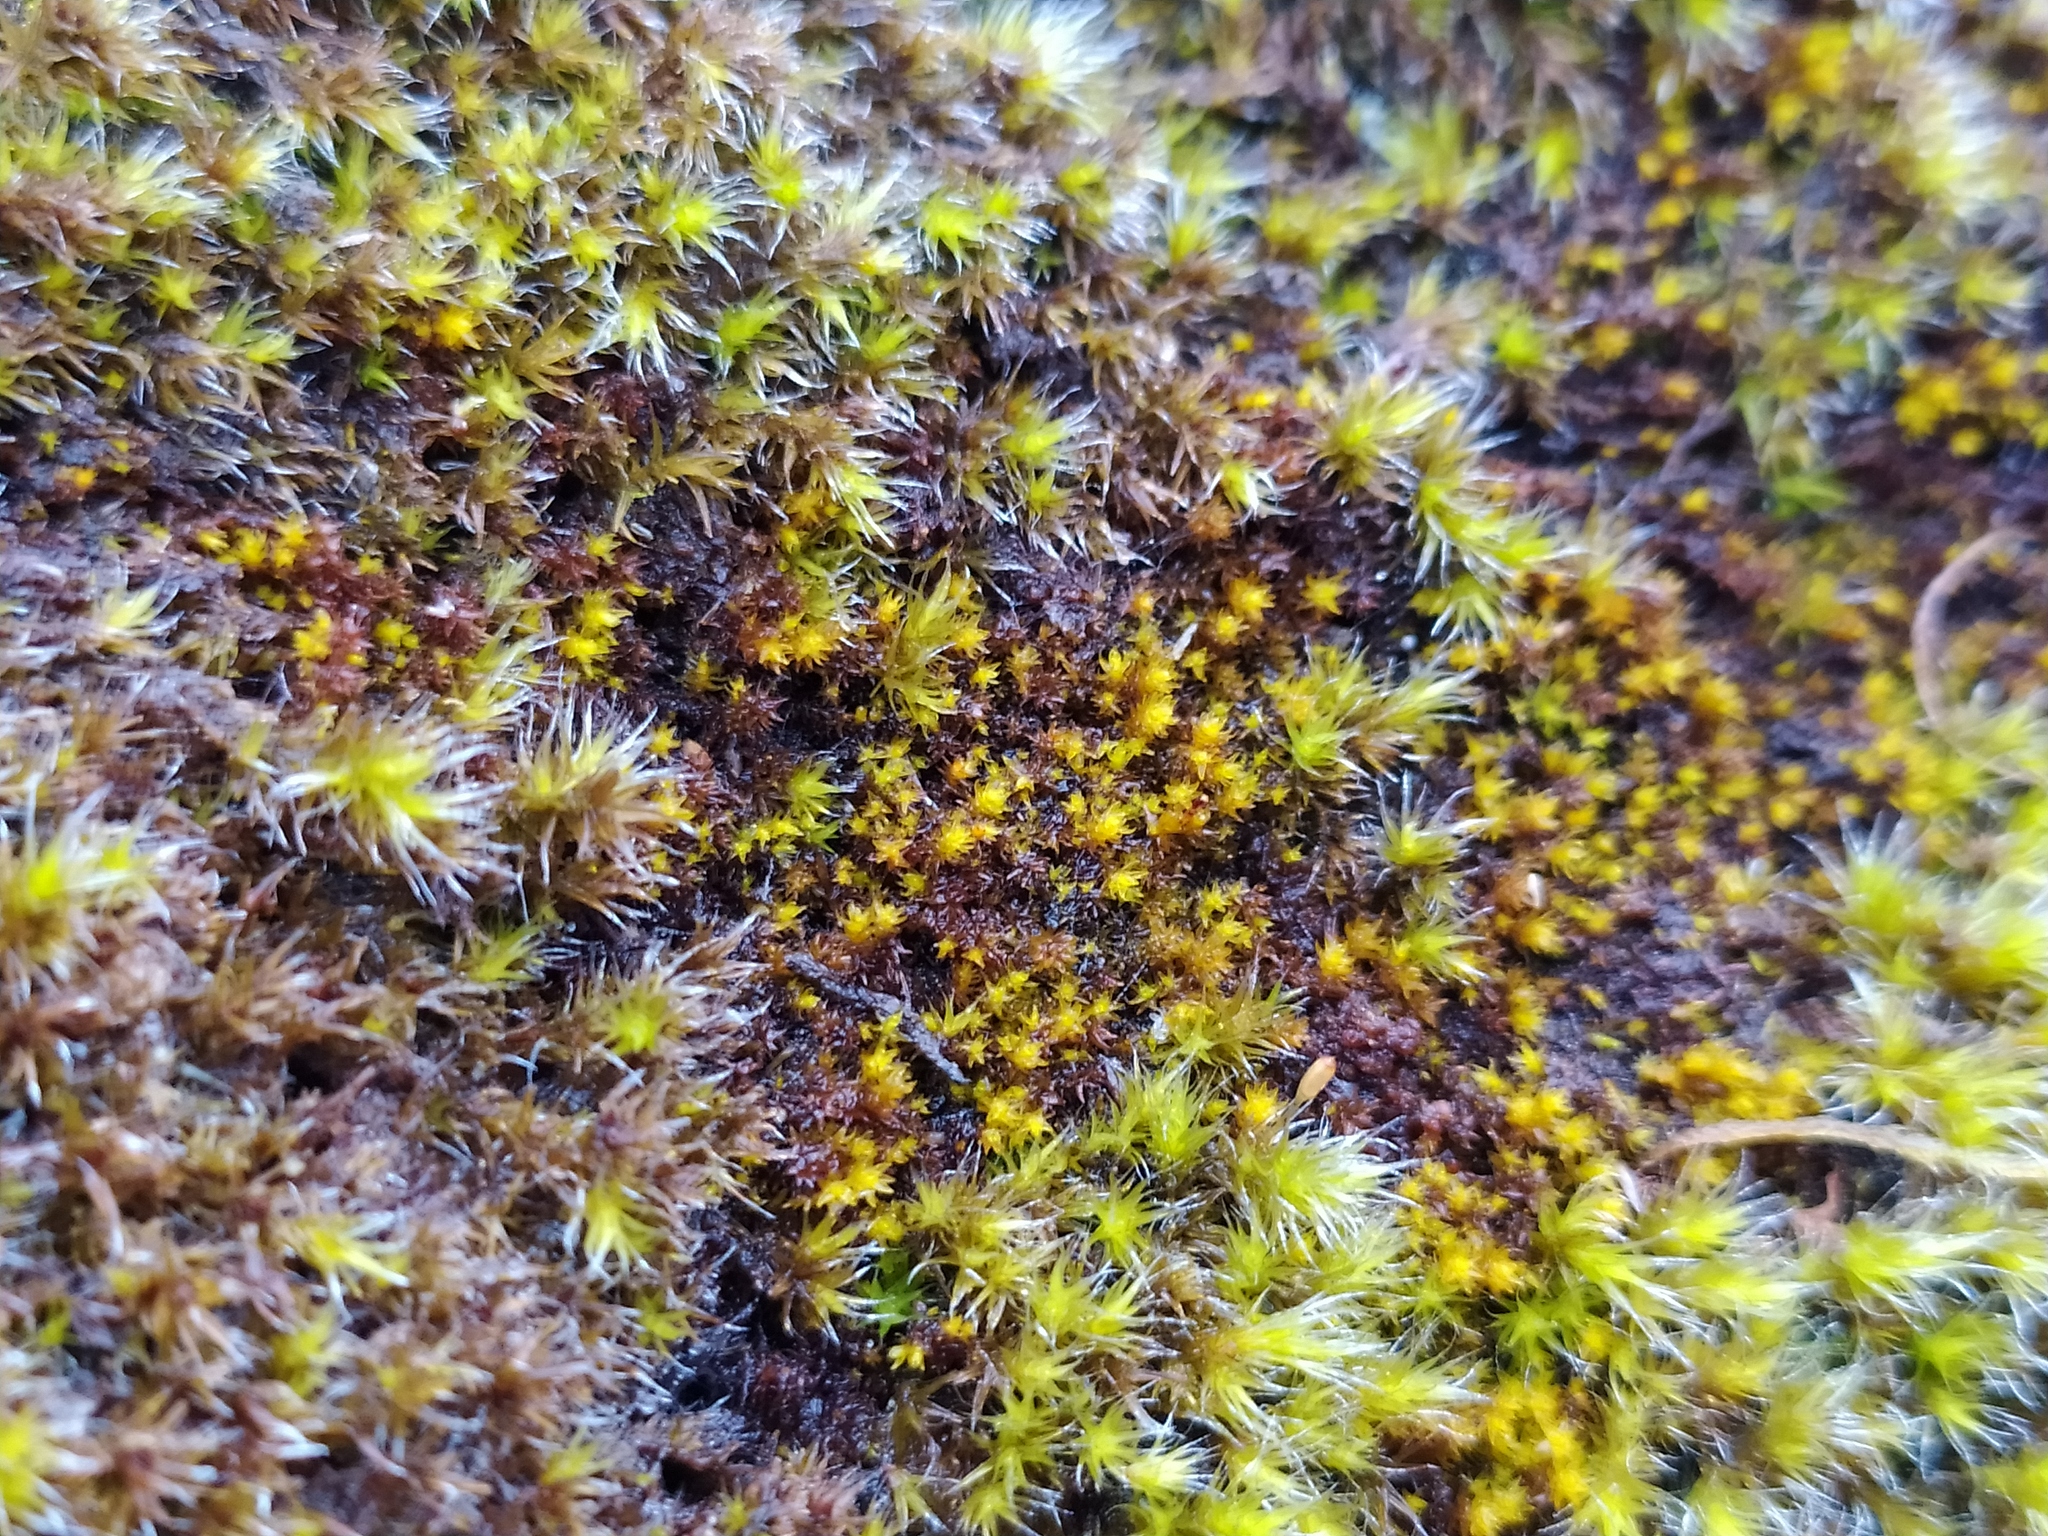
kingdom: Plantae
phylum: Bryophyta
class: Andreaeopsida
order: Andreaeales
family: Andreaeaceae
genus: Andreaea
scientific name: Andreaea rupestris
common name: Black rock moss
